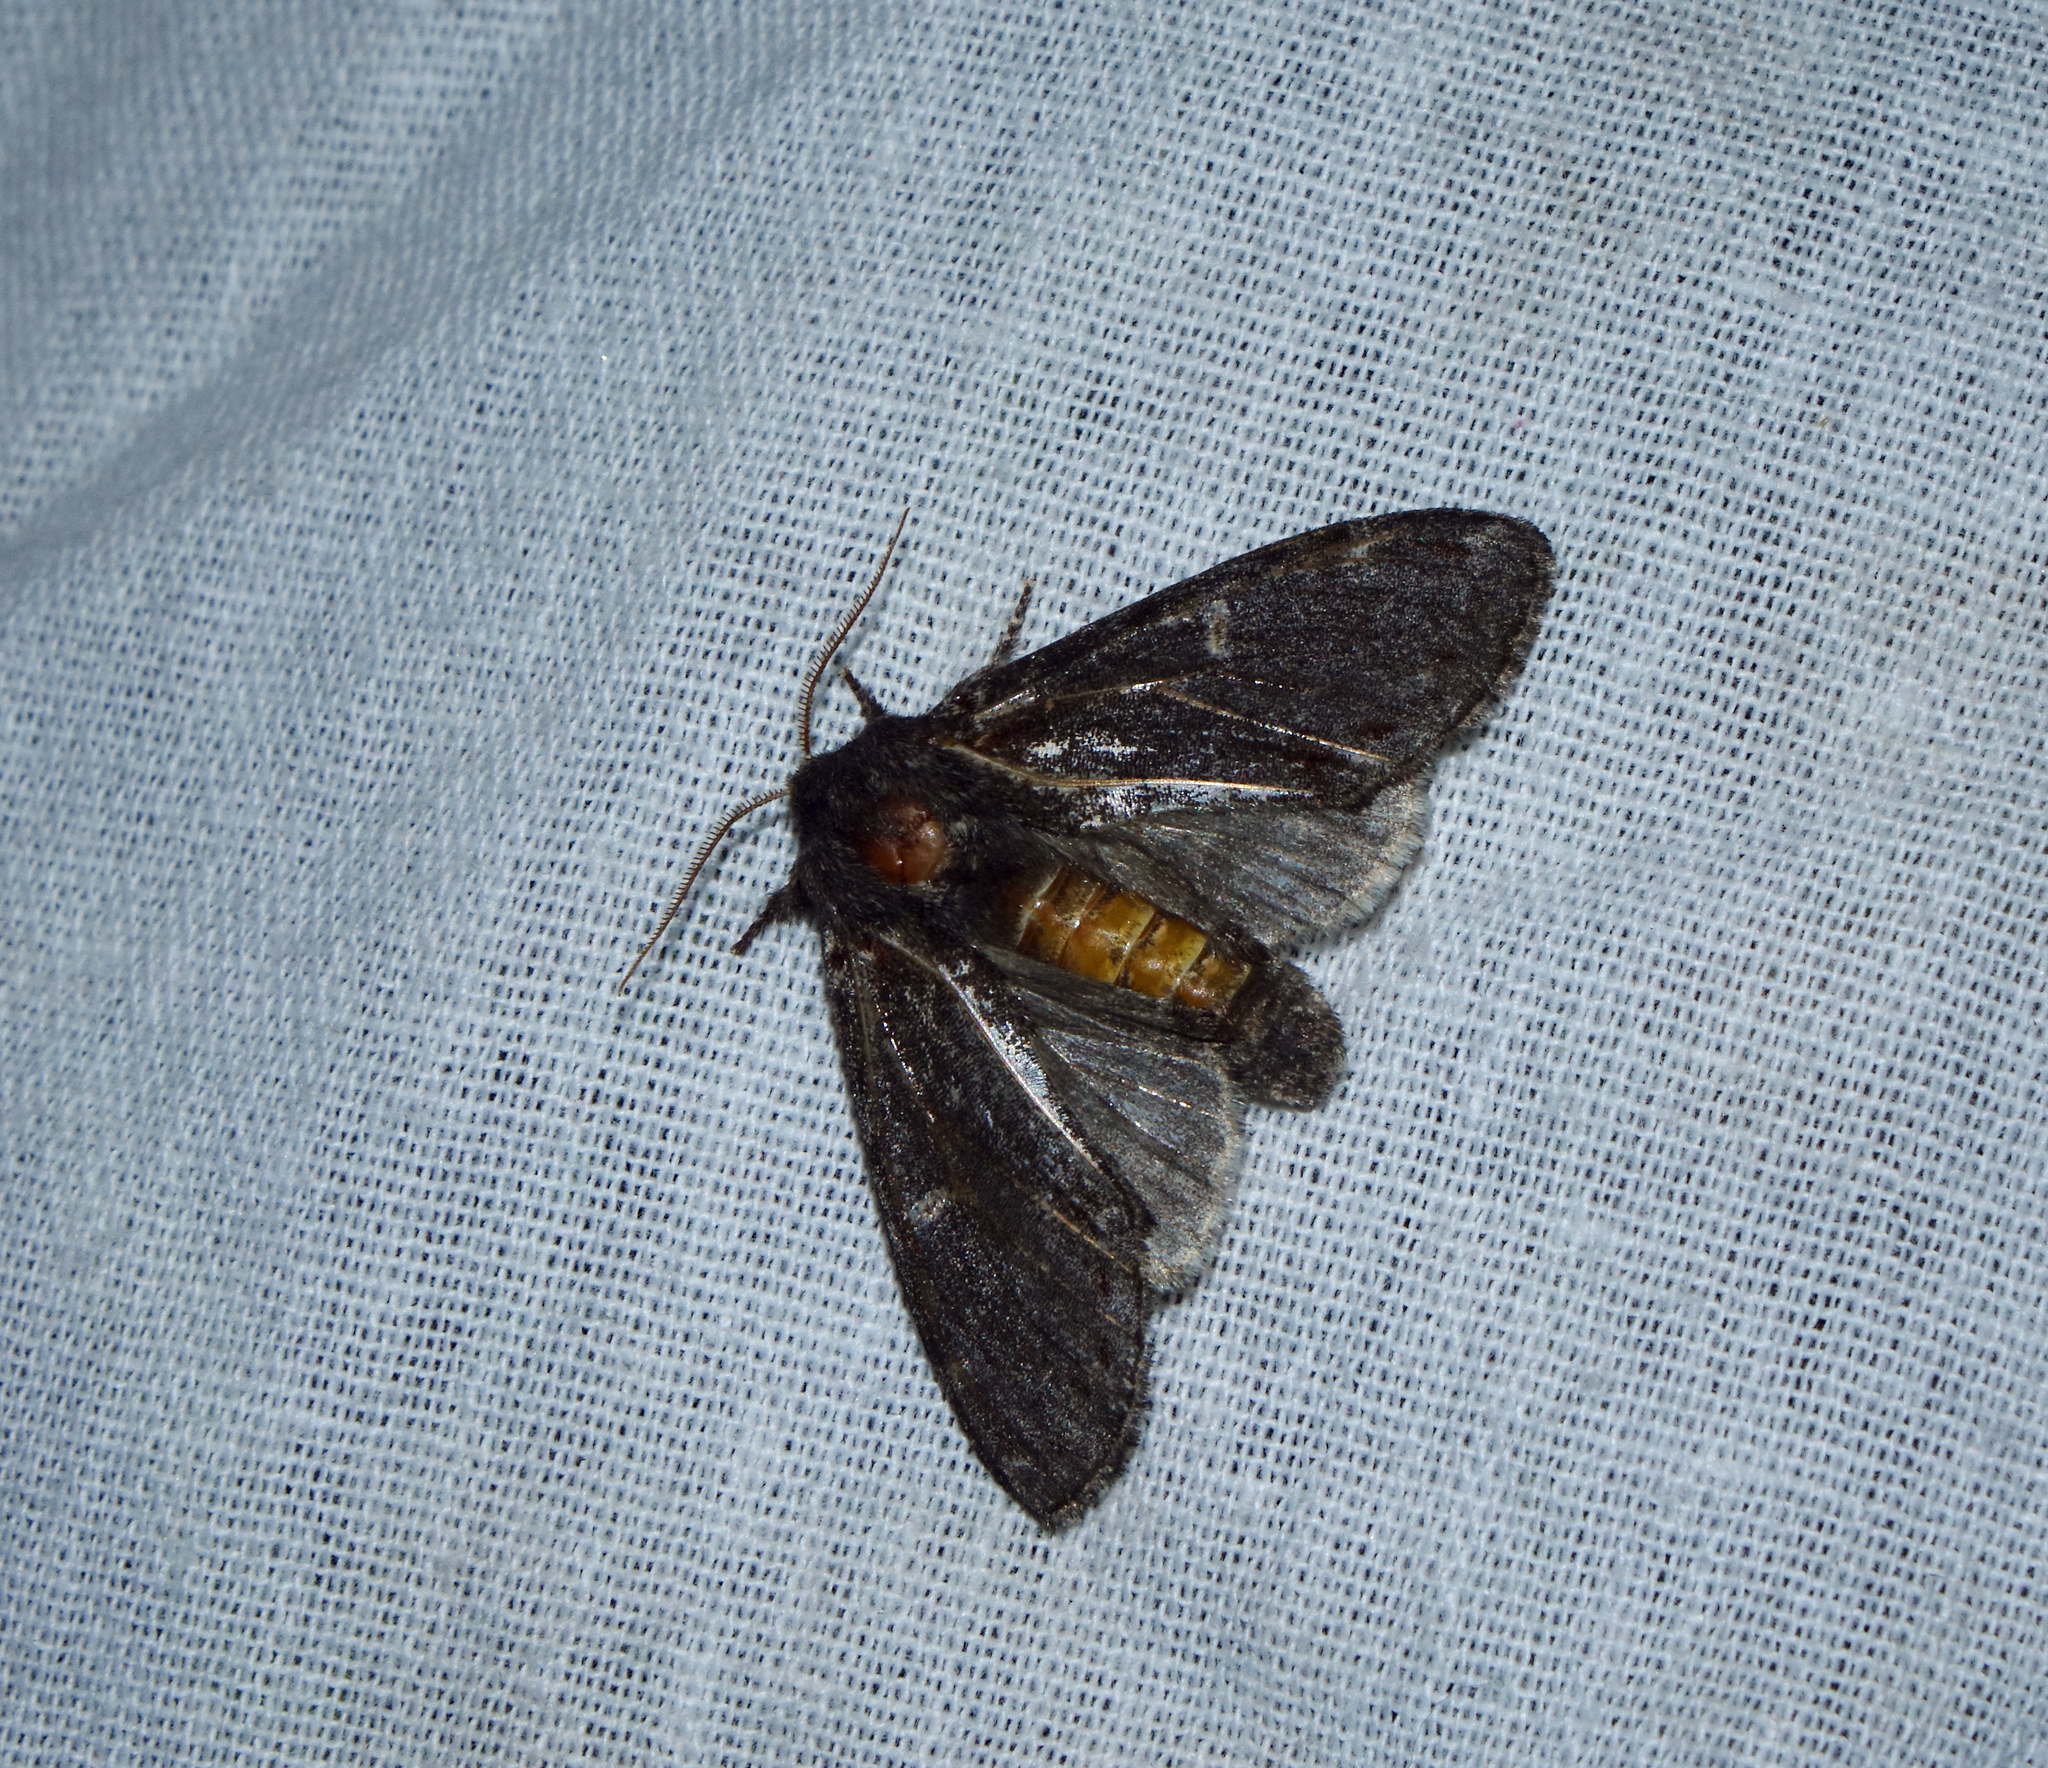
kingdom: Animalia
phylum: Arthropoda
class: Insecta
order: Lepidoptera
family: Notodontidae
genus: Notodonta
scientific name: Notodonta dromedarius
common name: Iron prominent
